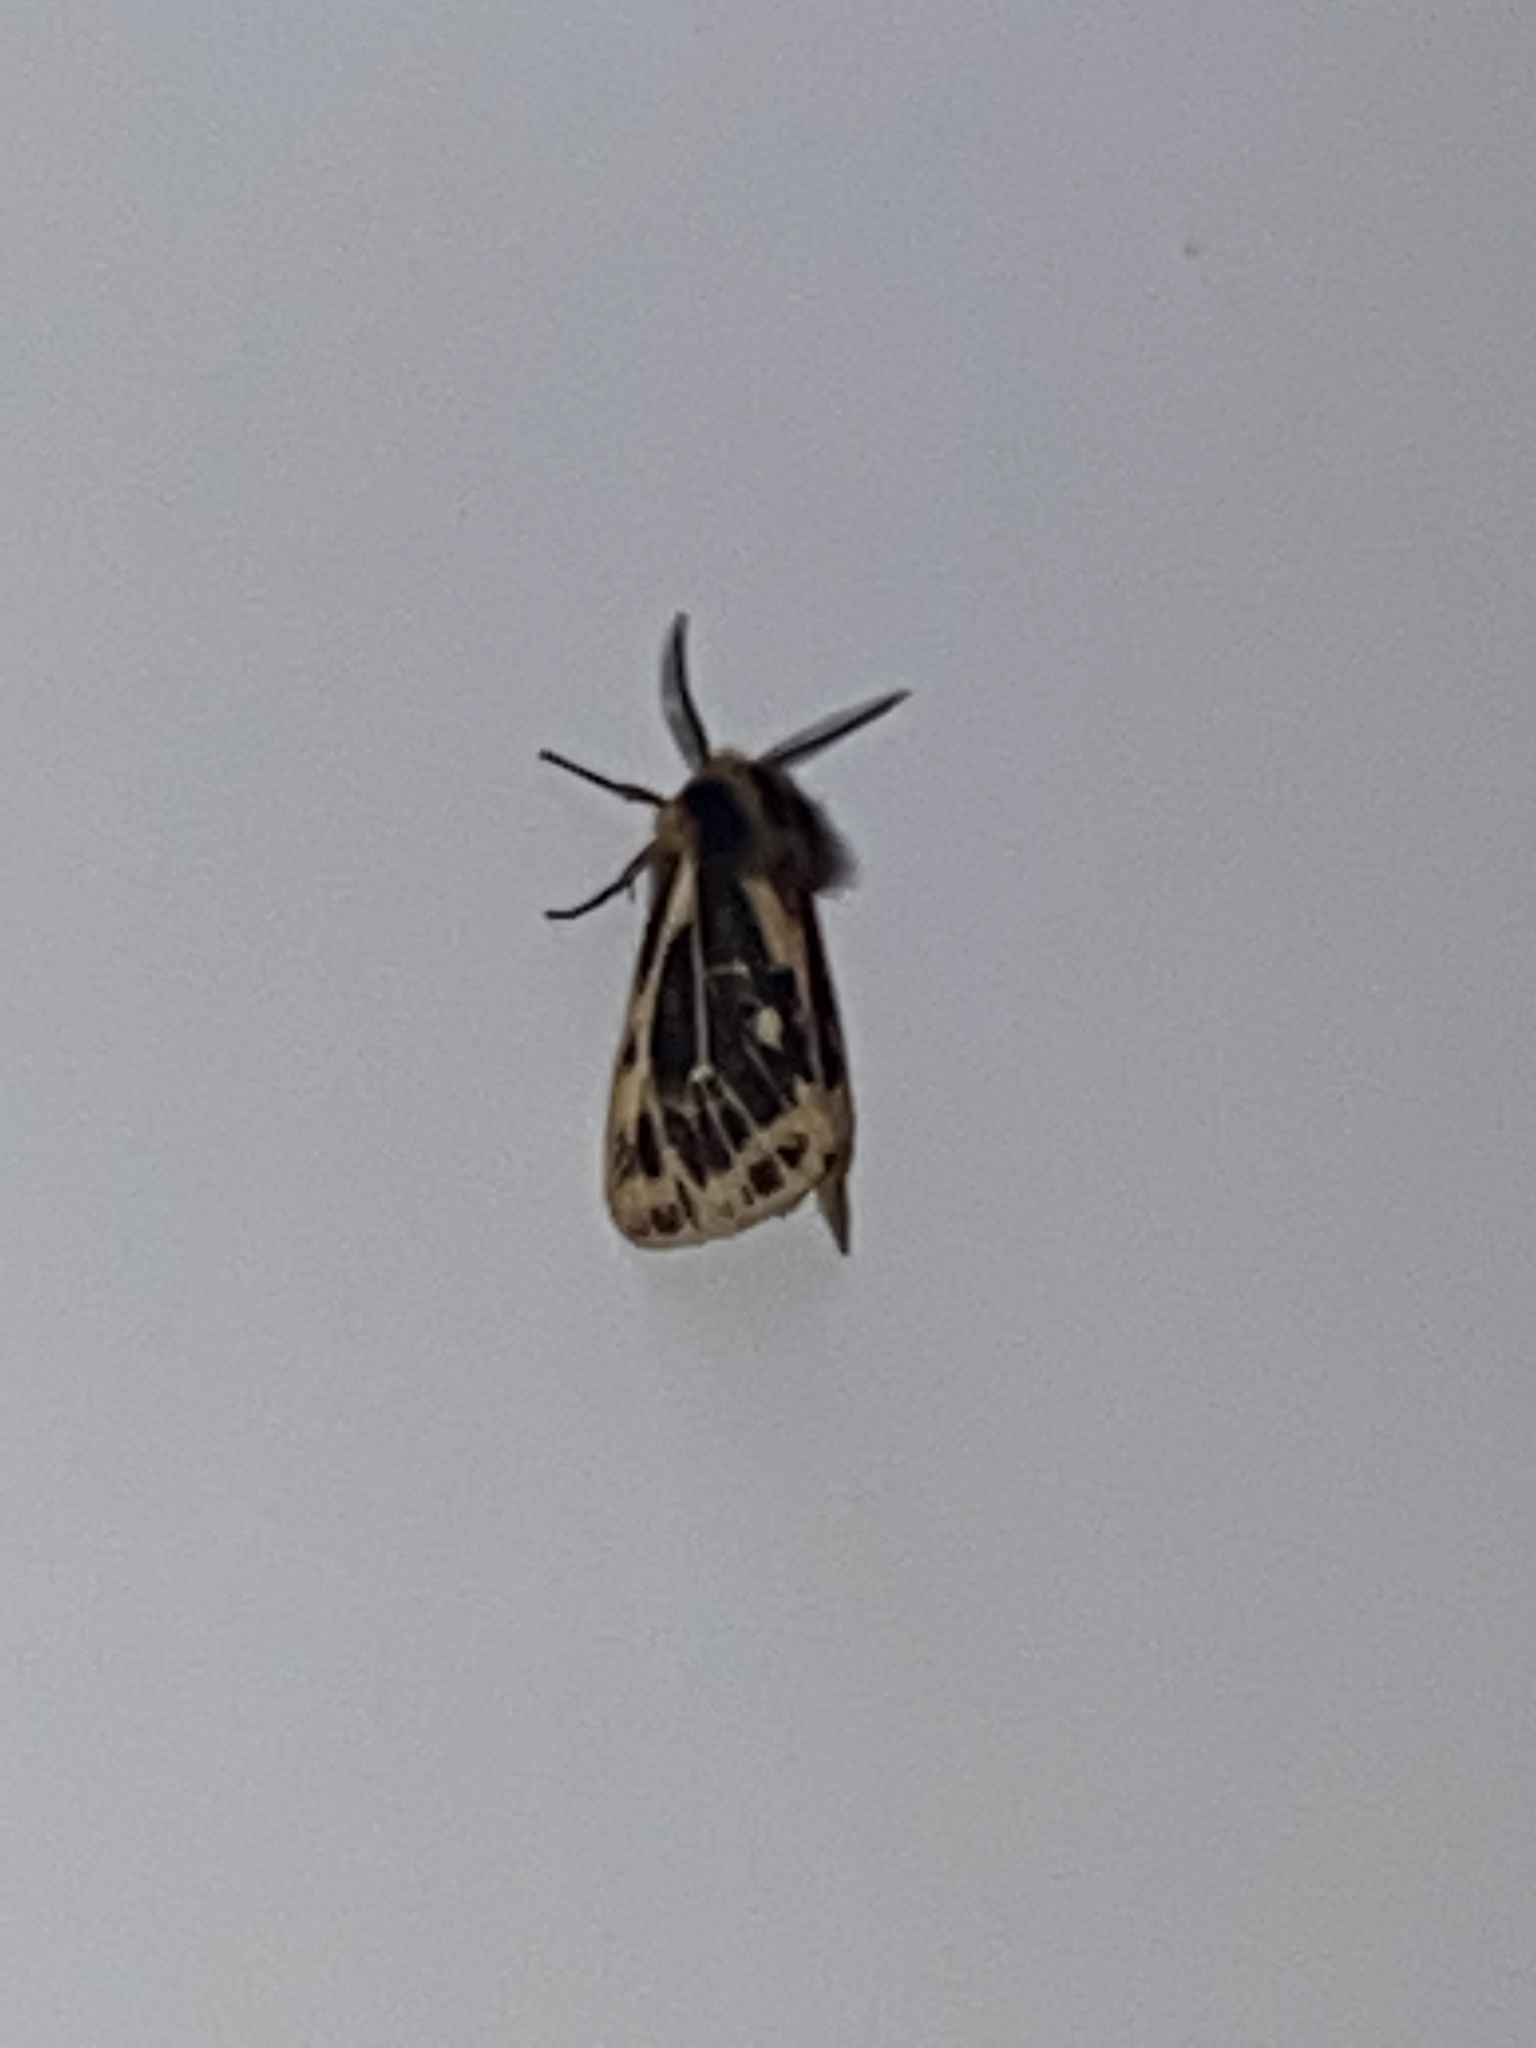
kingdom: Animalia
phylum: Arthropoda
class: Insecta
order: Lepidoptera
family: Erebidae
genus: Ardices
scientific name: Ardices curvata
